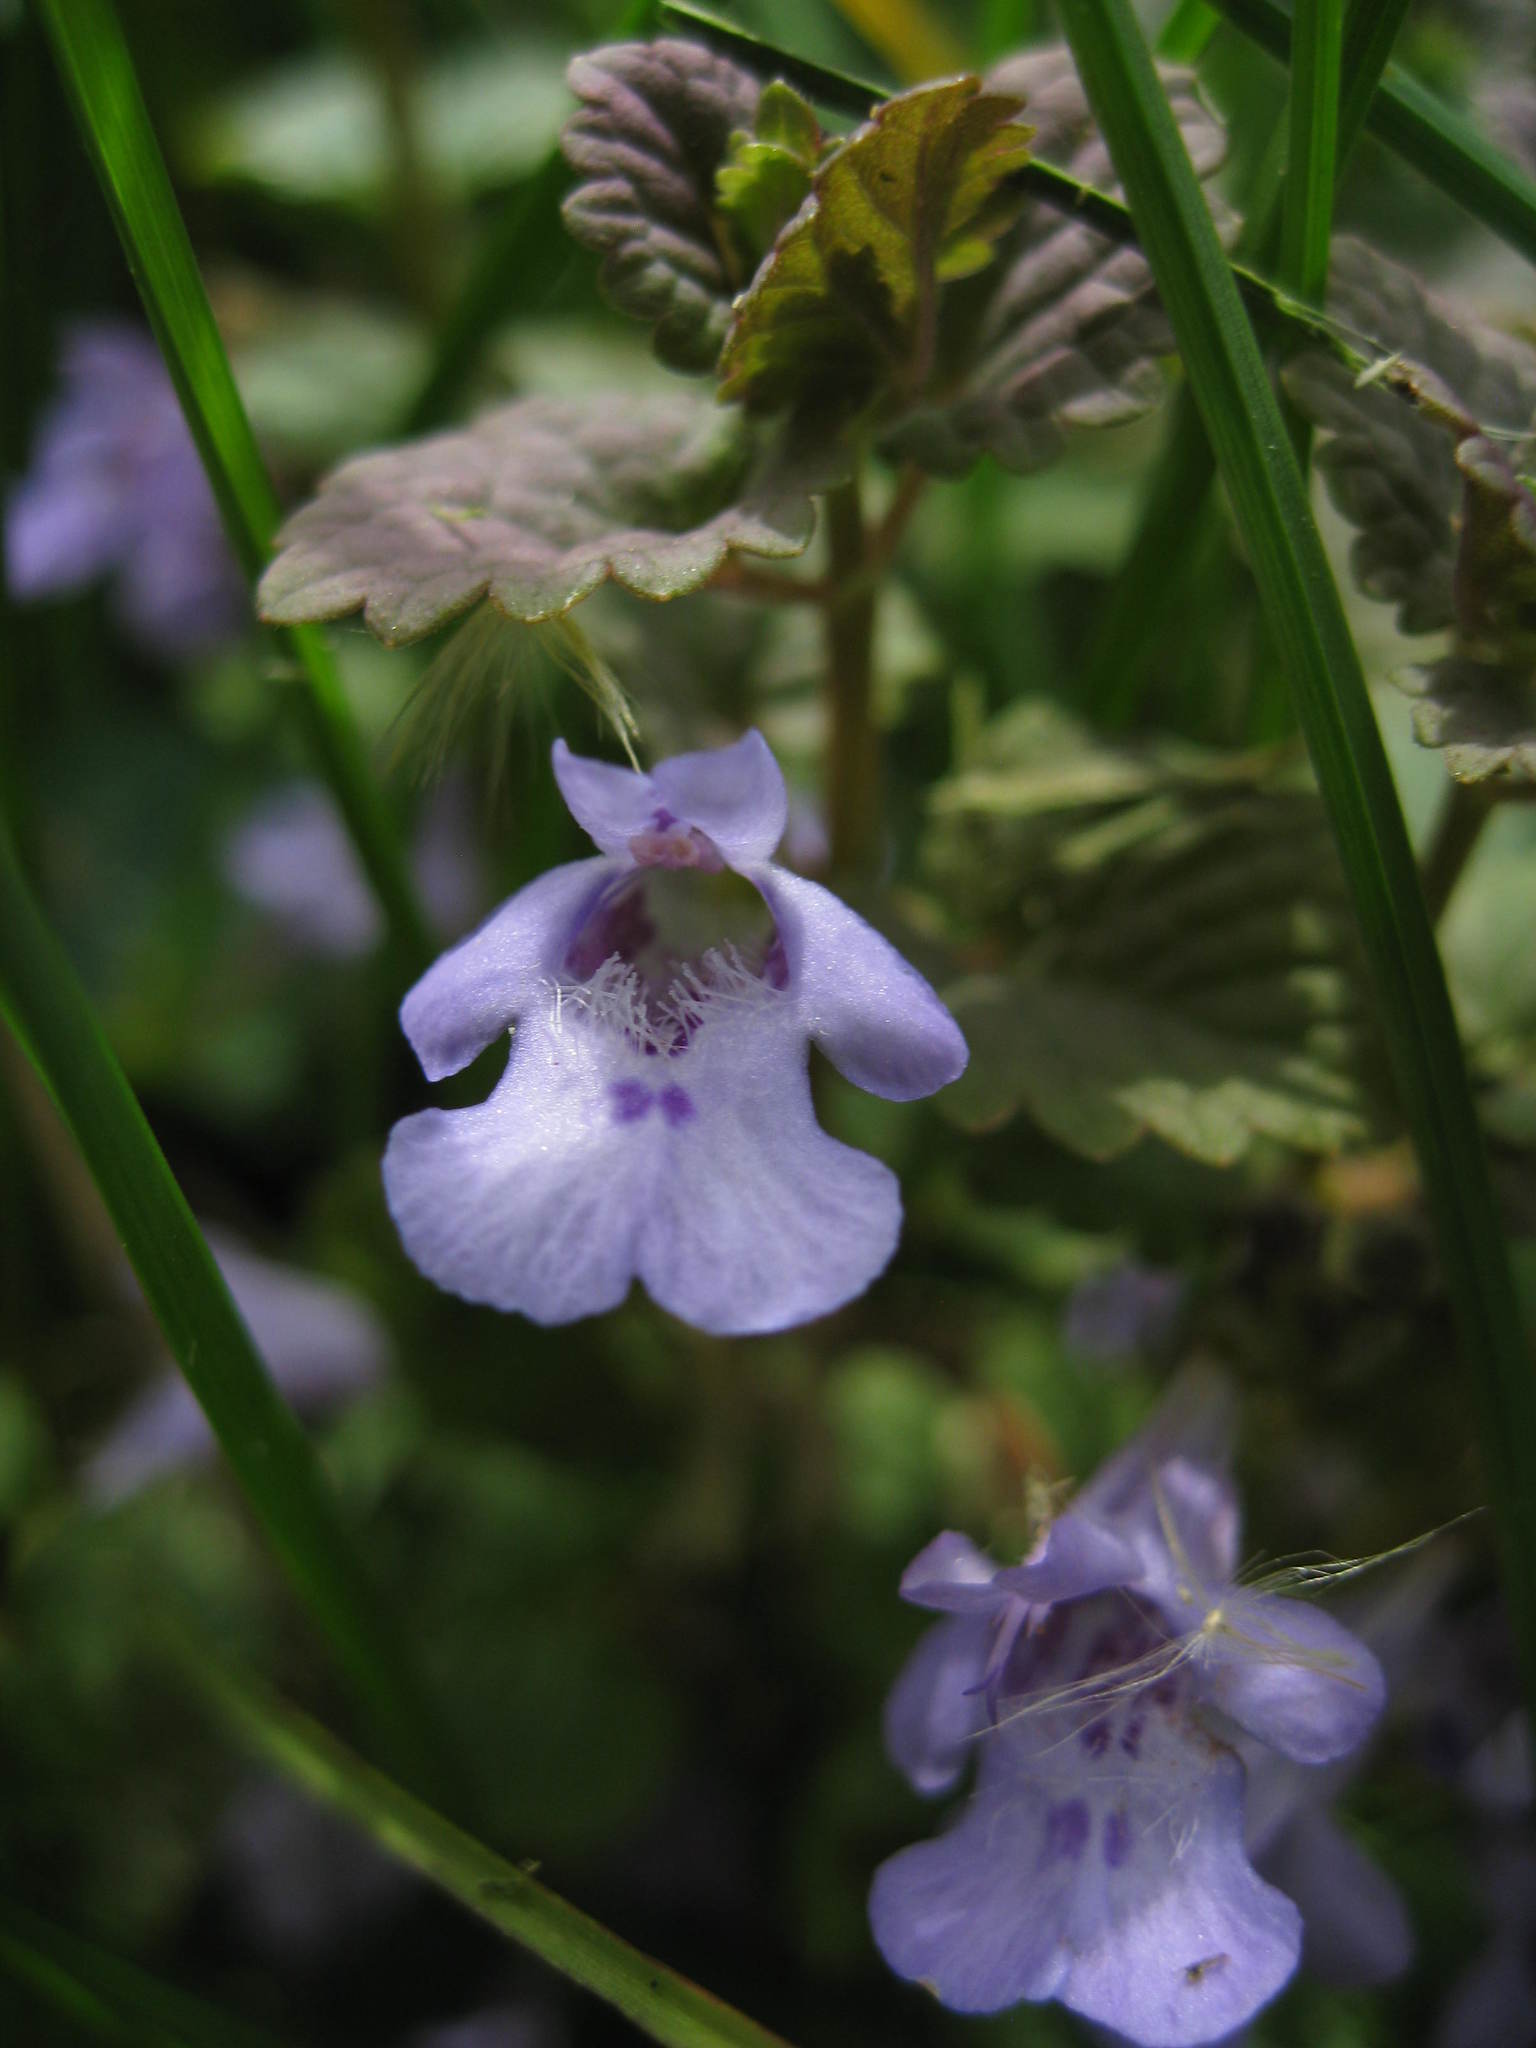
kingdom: Plantae
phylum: Tracheophyta
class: Magnoliopsida
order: Lamiales
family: Lamiaceae
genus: Glechoma
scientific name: Glechoma hederacea
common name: Ground ivy
